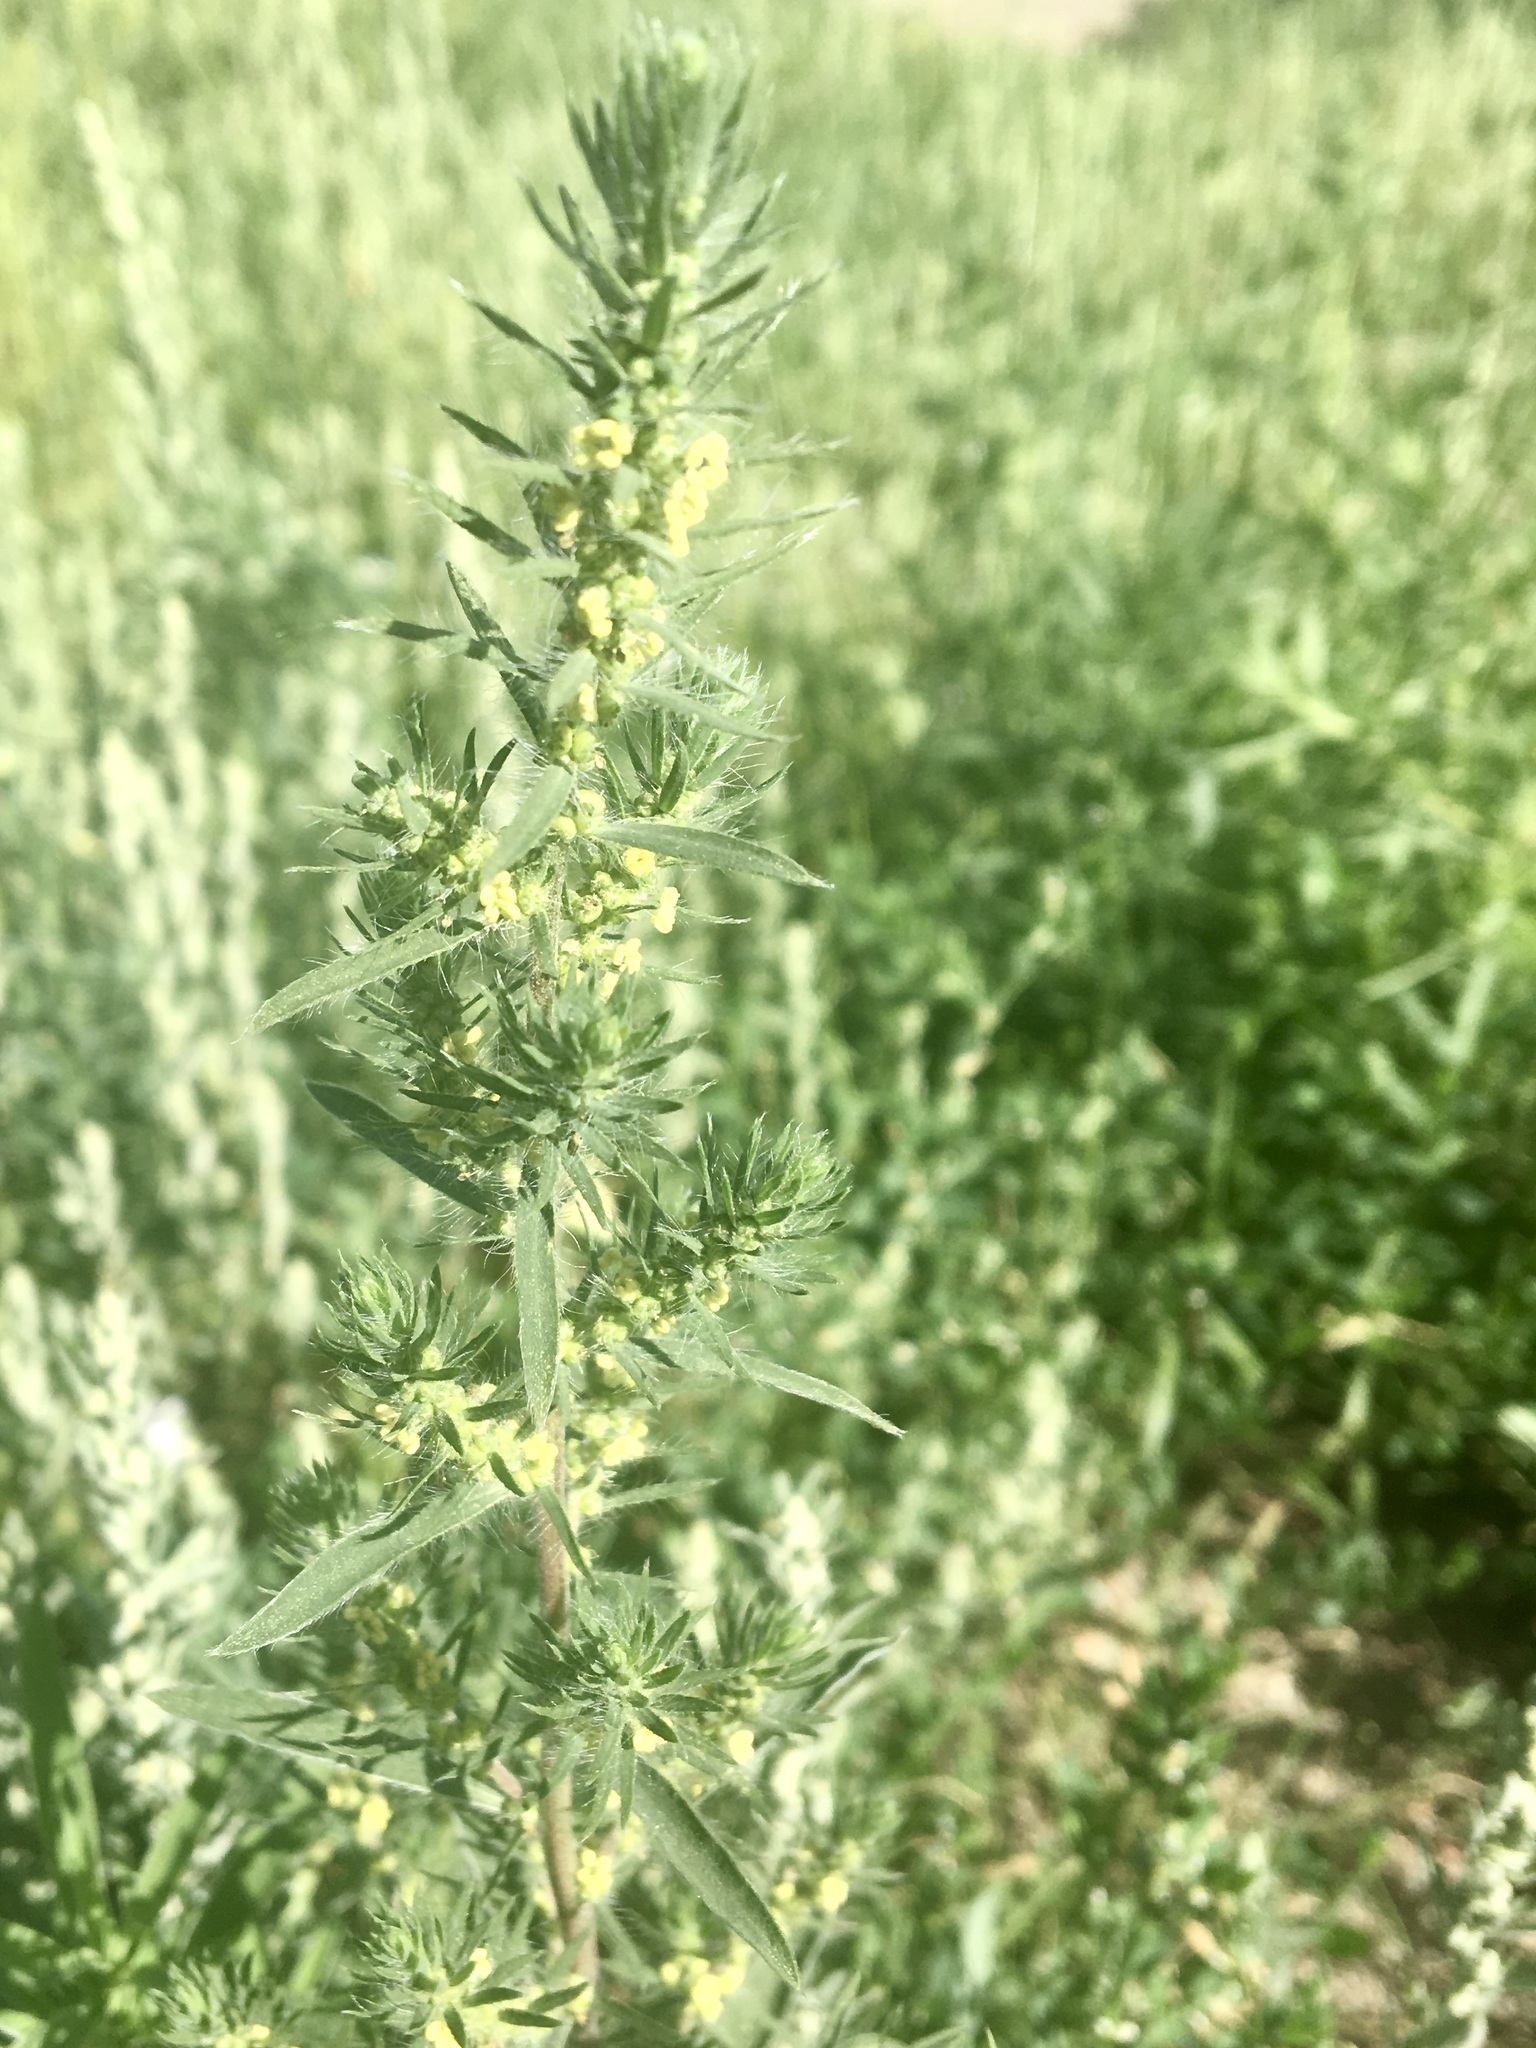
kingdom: Plantae
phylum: Tracheophyta
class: Magnoliopsida
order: Caryophyllales
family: Amaranthaceae
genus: Bassia
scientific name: Bassia scoparia
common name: Belvedere
